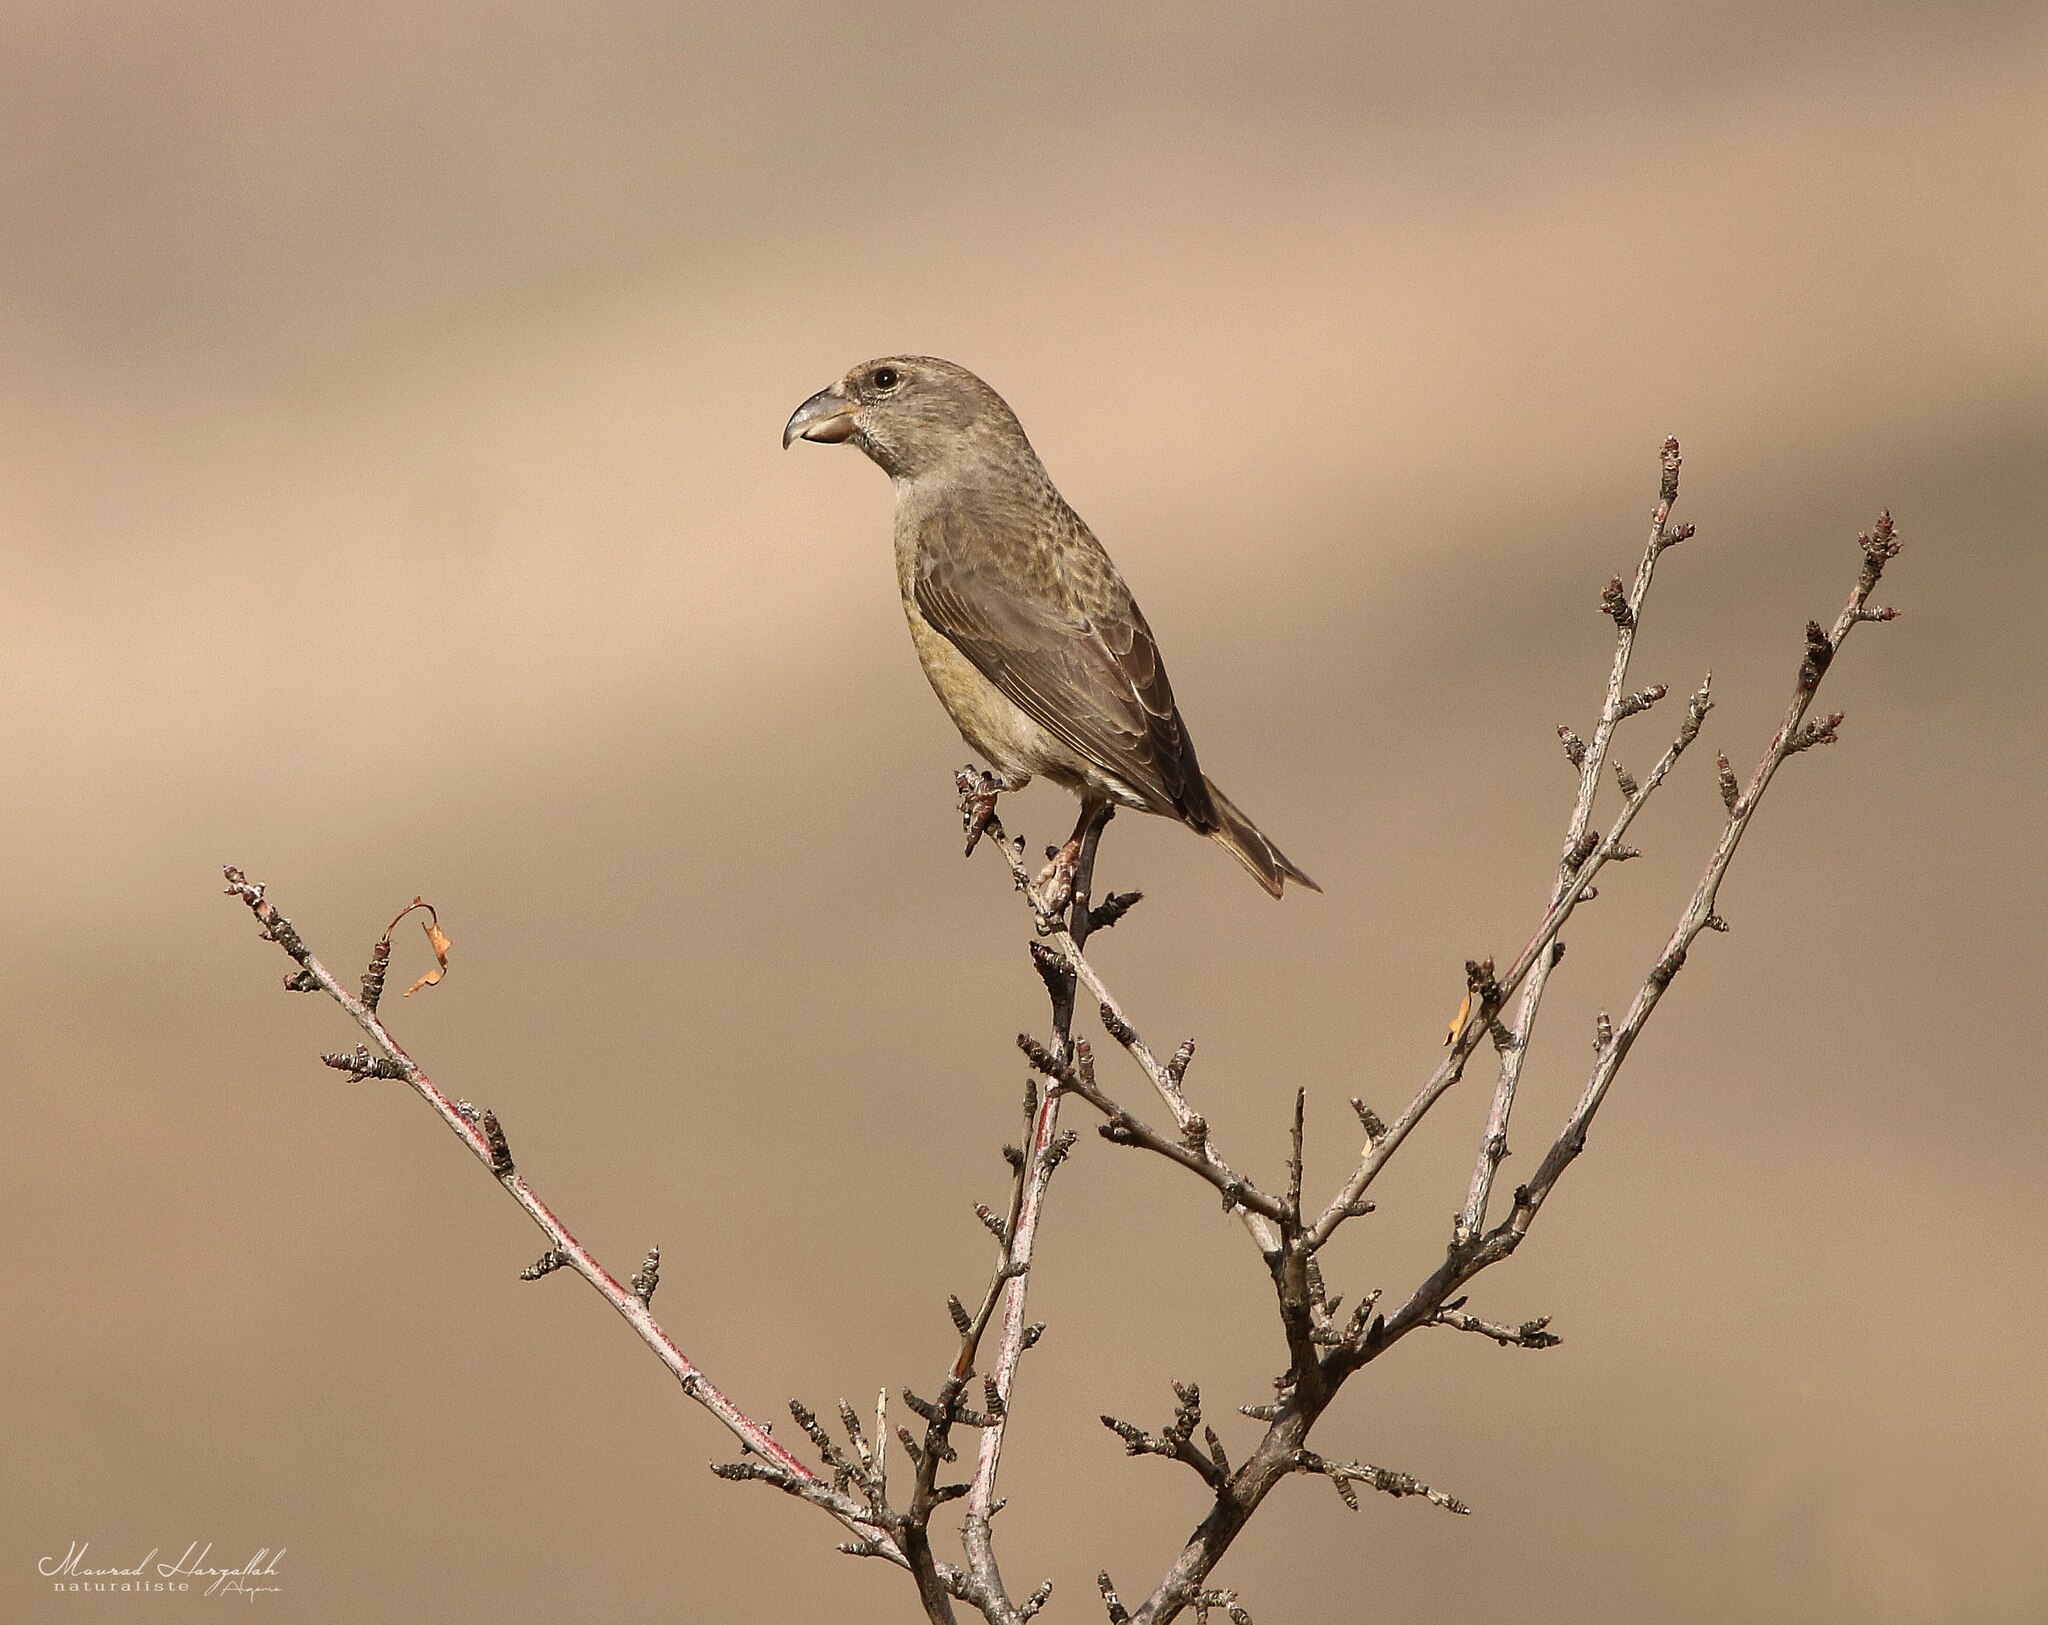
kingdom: Animalia
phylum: Chordata
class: Aves
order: Passeriformes
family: Fringillidae
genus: Loxia
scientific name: Loxia curvirostra
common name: Red crossbill
